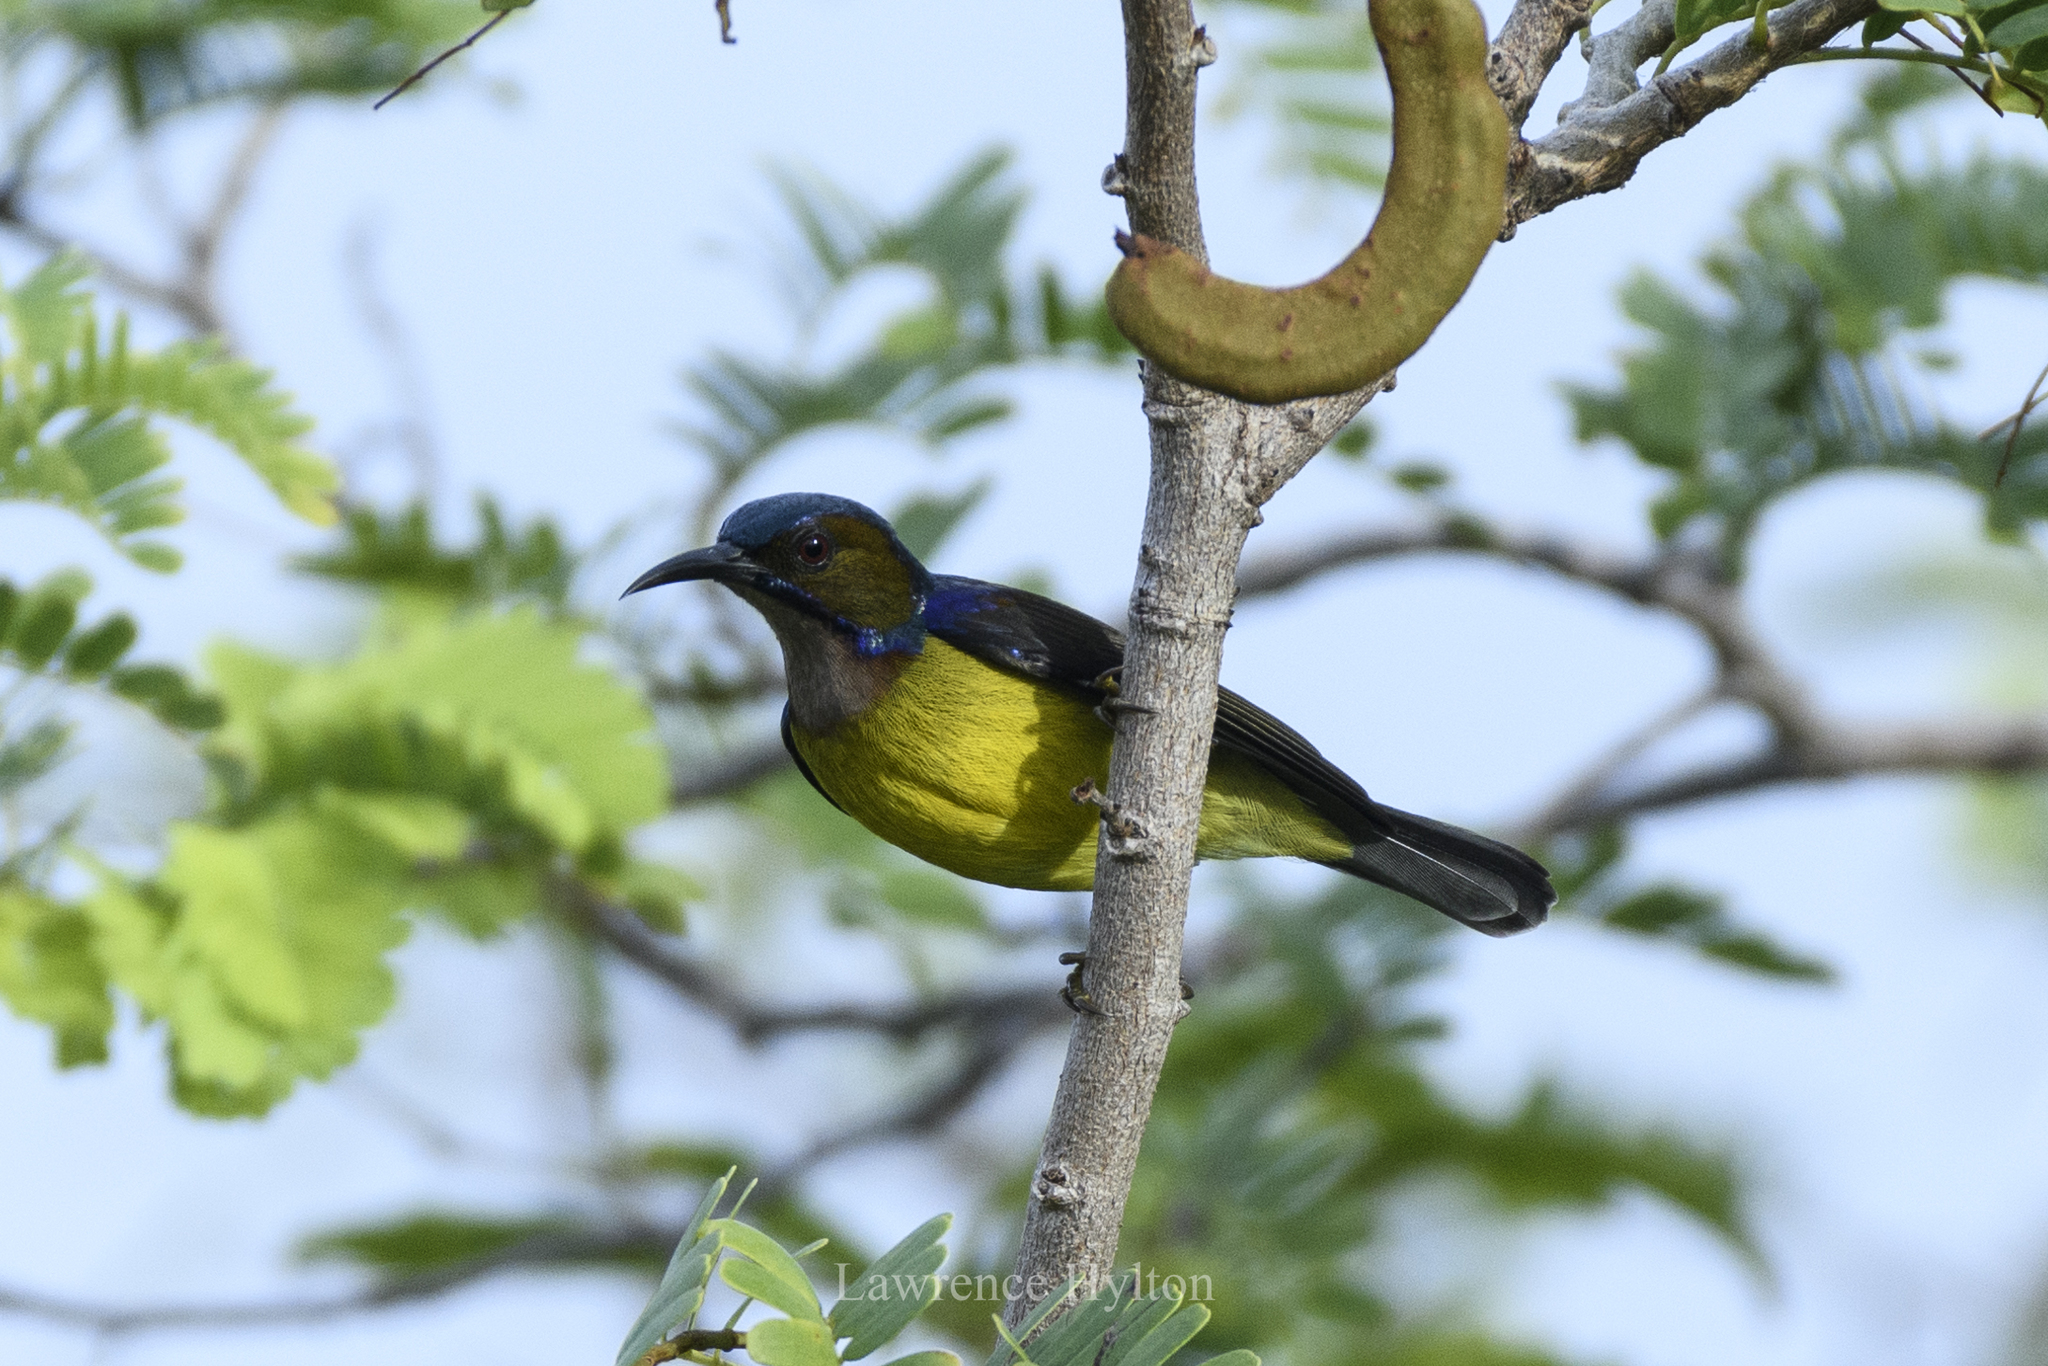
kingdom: Animalia
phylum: Chordata
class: Aves
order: Passeriformes
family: Nectariniidae
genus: Anthreptes
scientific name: Anthreptes malacensis
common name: Brown-throated sunbird
